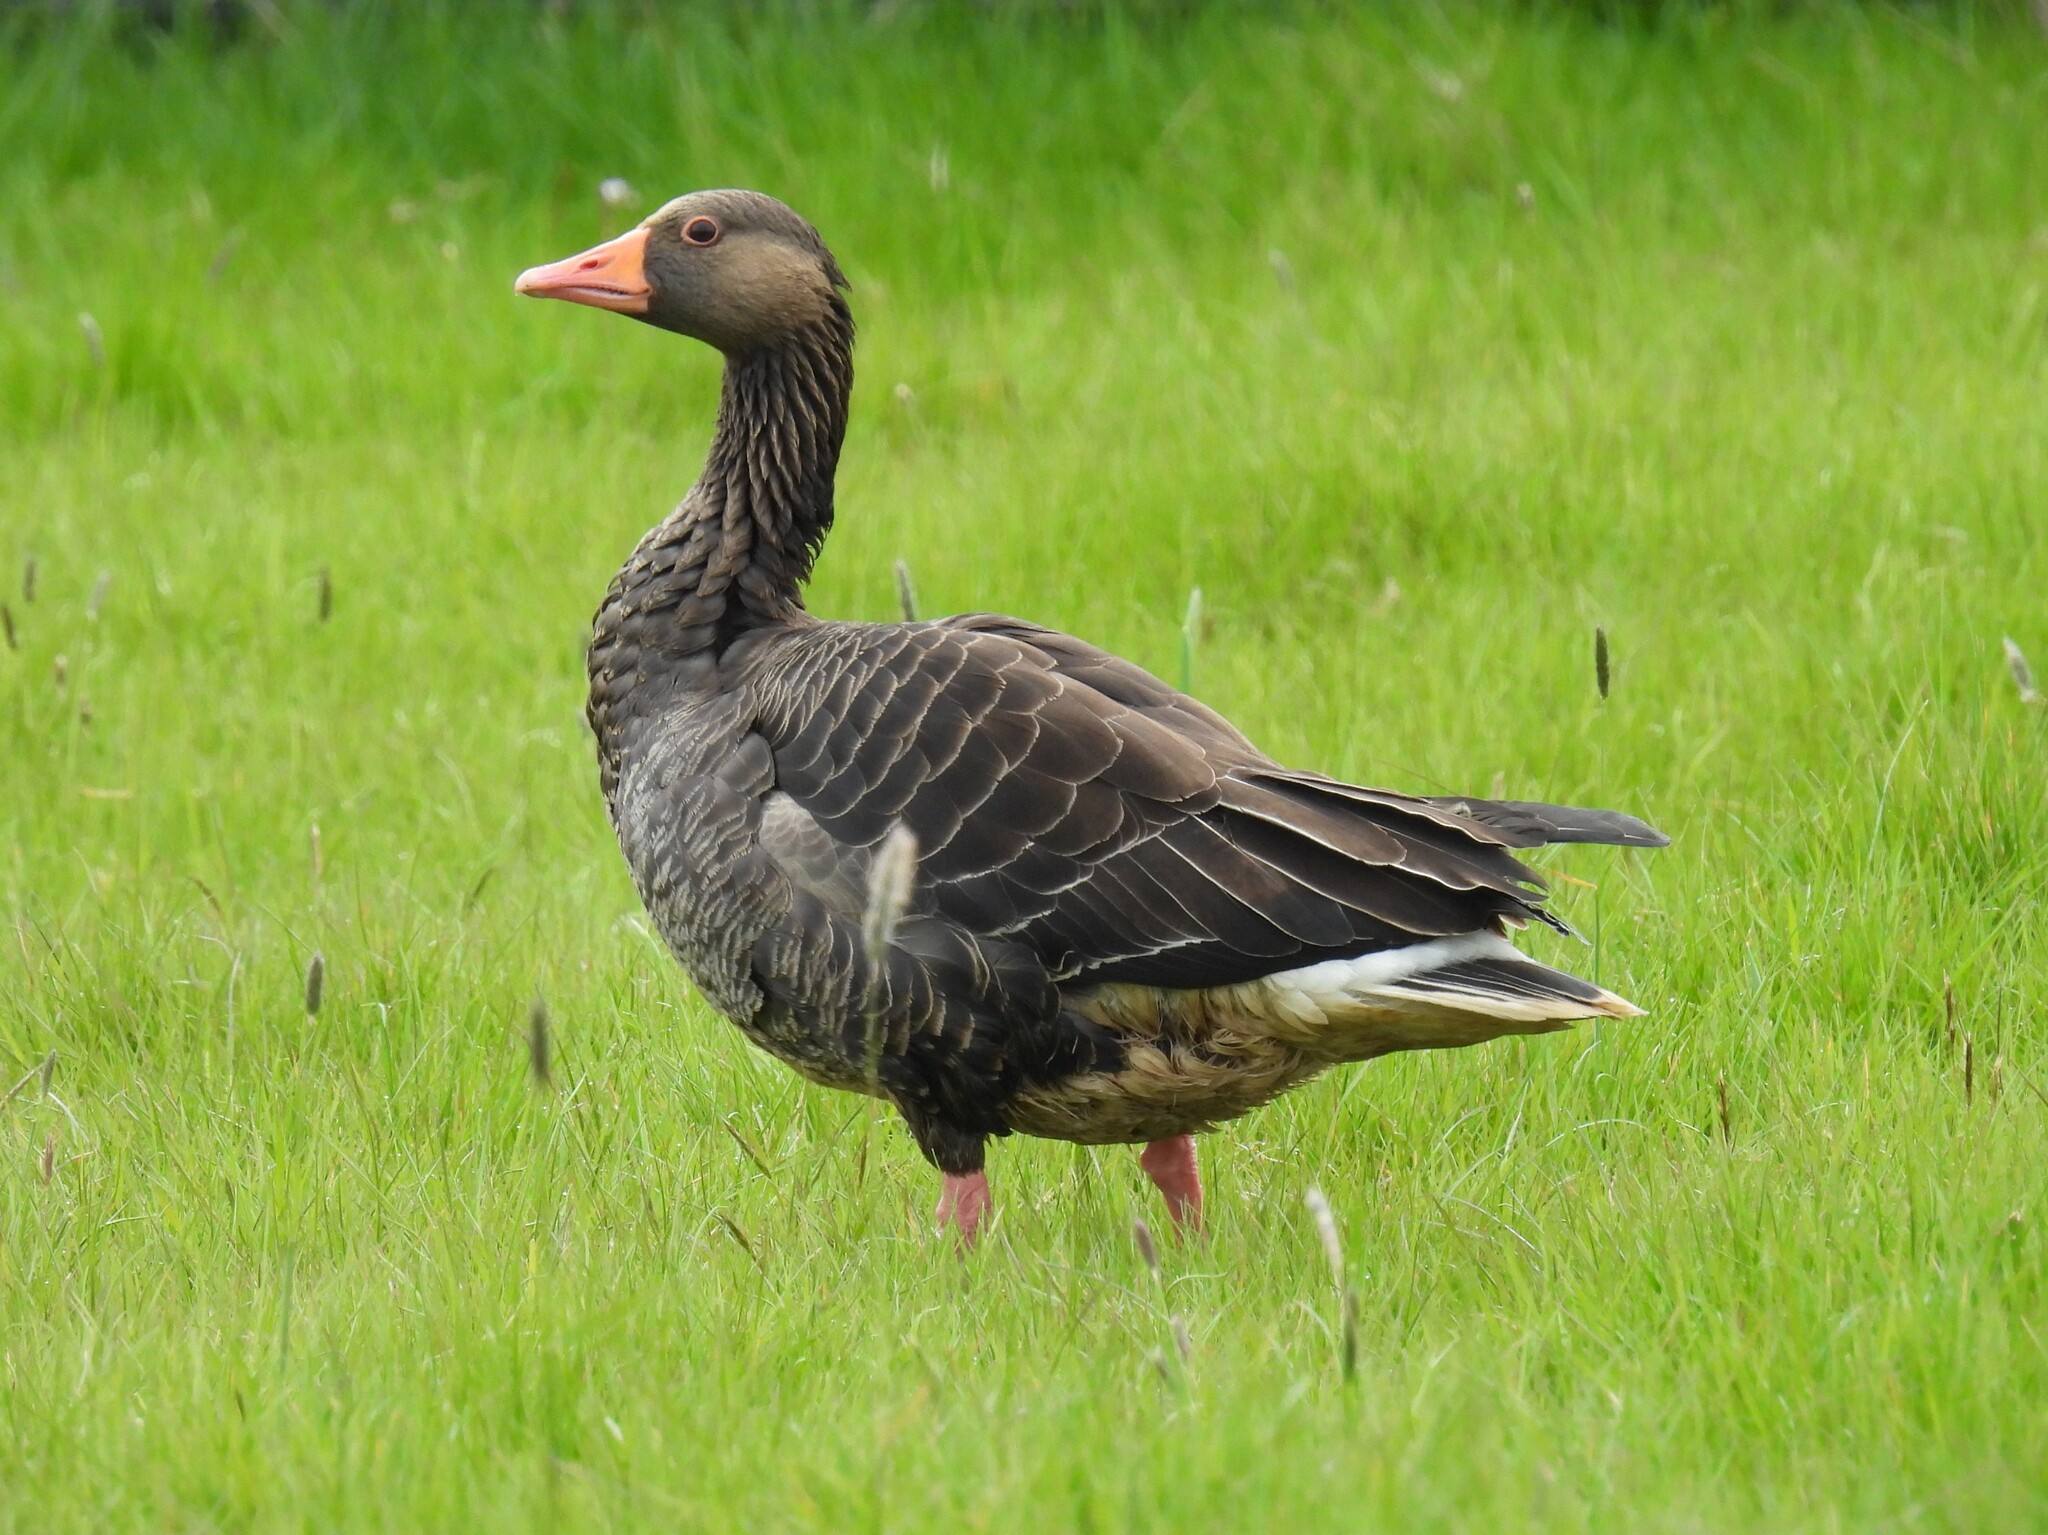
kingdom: Animalia
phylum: Chordata
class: Aves
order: Anseriformes
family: Anatidae
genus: Anser
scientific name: Anser anser
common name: Greylag goose
